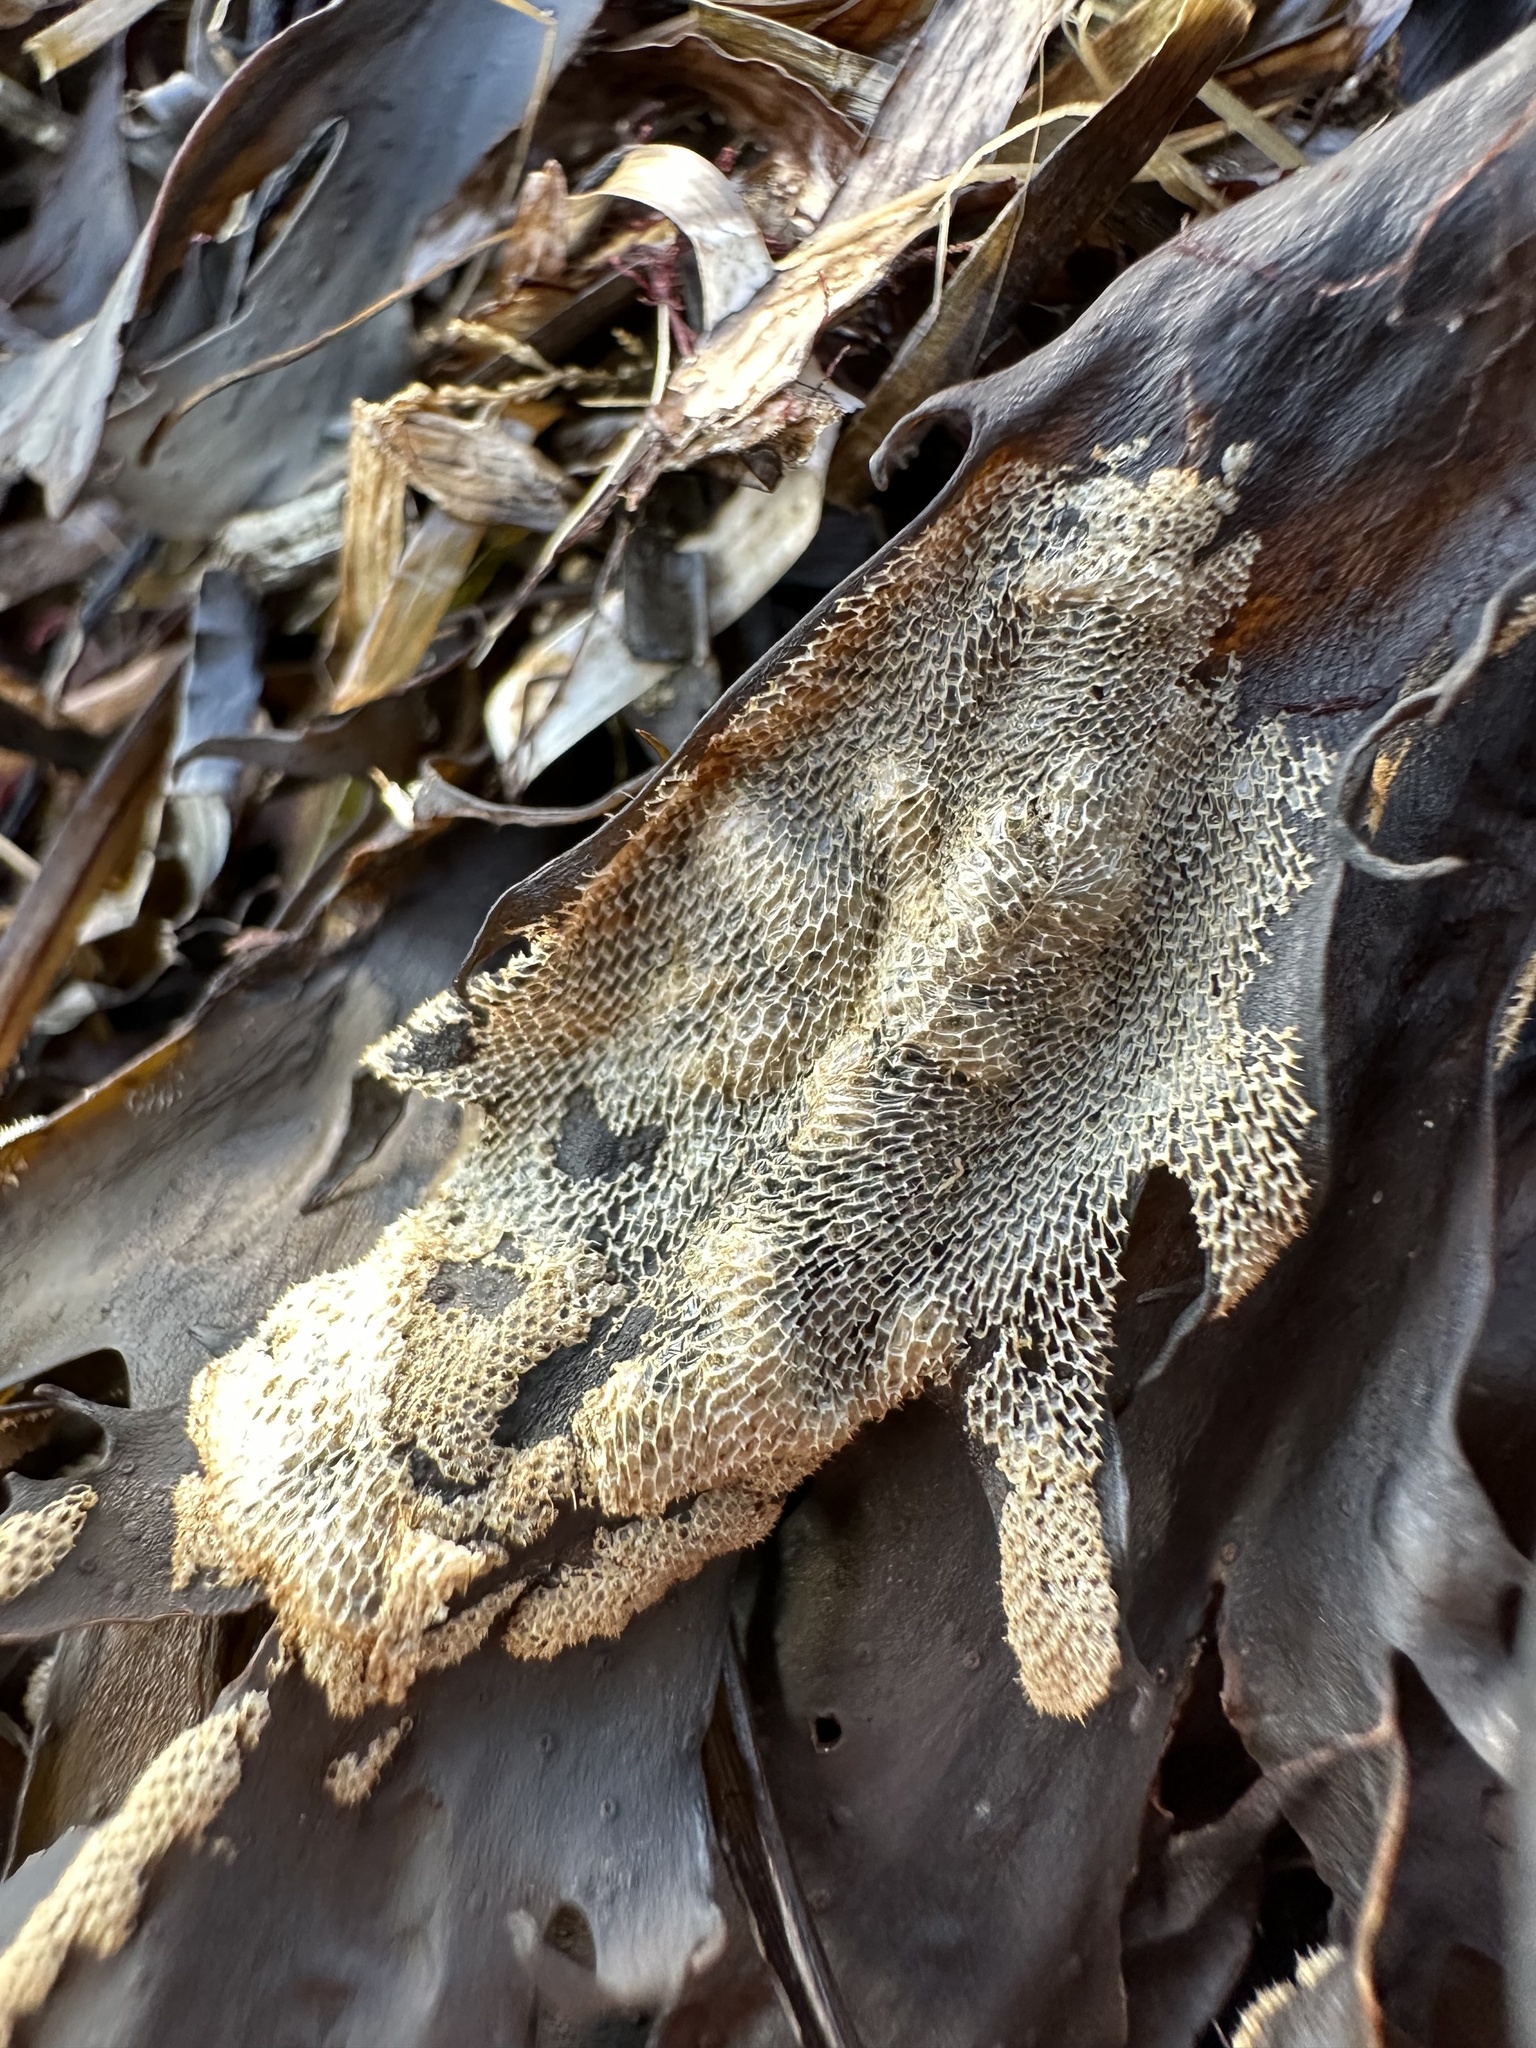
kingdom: Animalia
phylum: Bryozoa
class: Gymnolaemata
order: Cheilostomatida
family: Membraniporidae
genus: Membranipora
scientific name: Membranipora membranacea
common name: Sea mat
